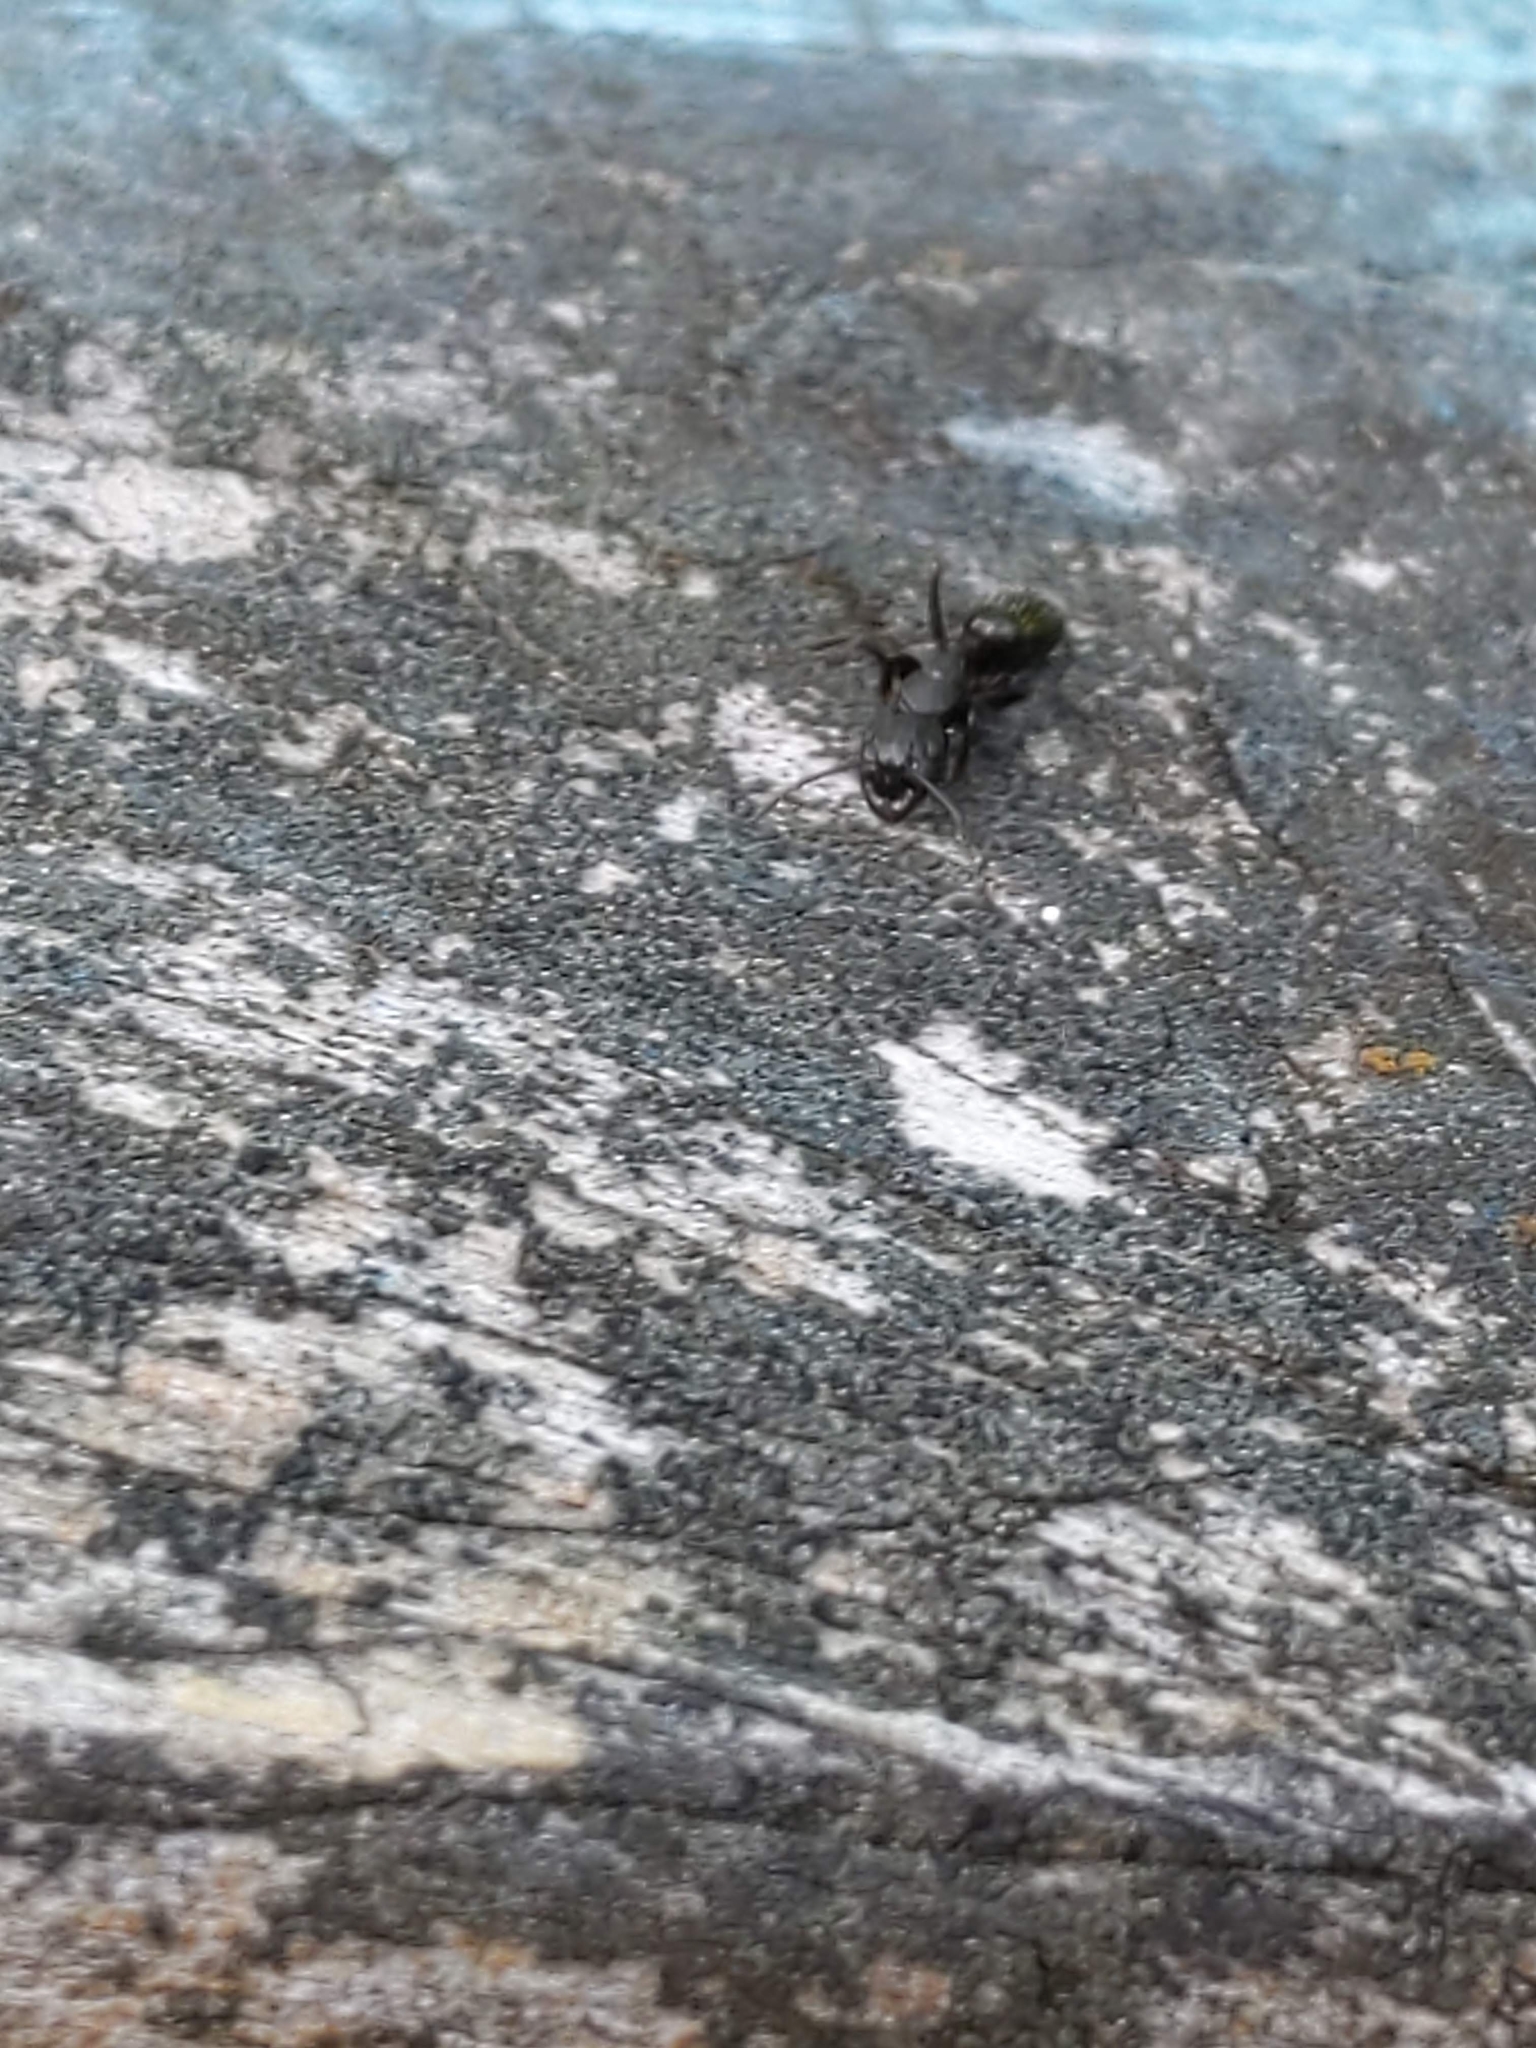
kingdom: Animalia
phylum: Arthropoda
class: Insecta
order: Hymenoptera
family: Formicidae
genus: Camponotus
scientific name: Camponotus nearcticus
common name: Smaller carpenter ant
